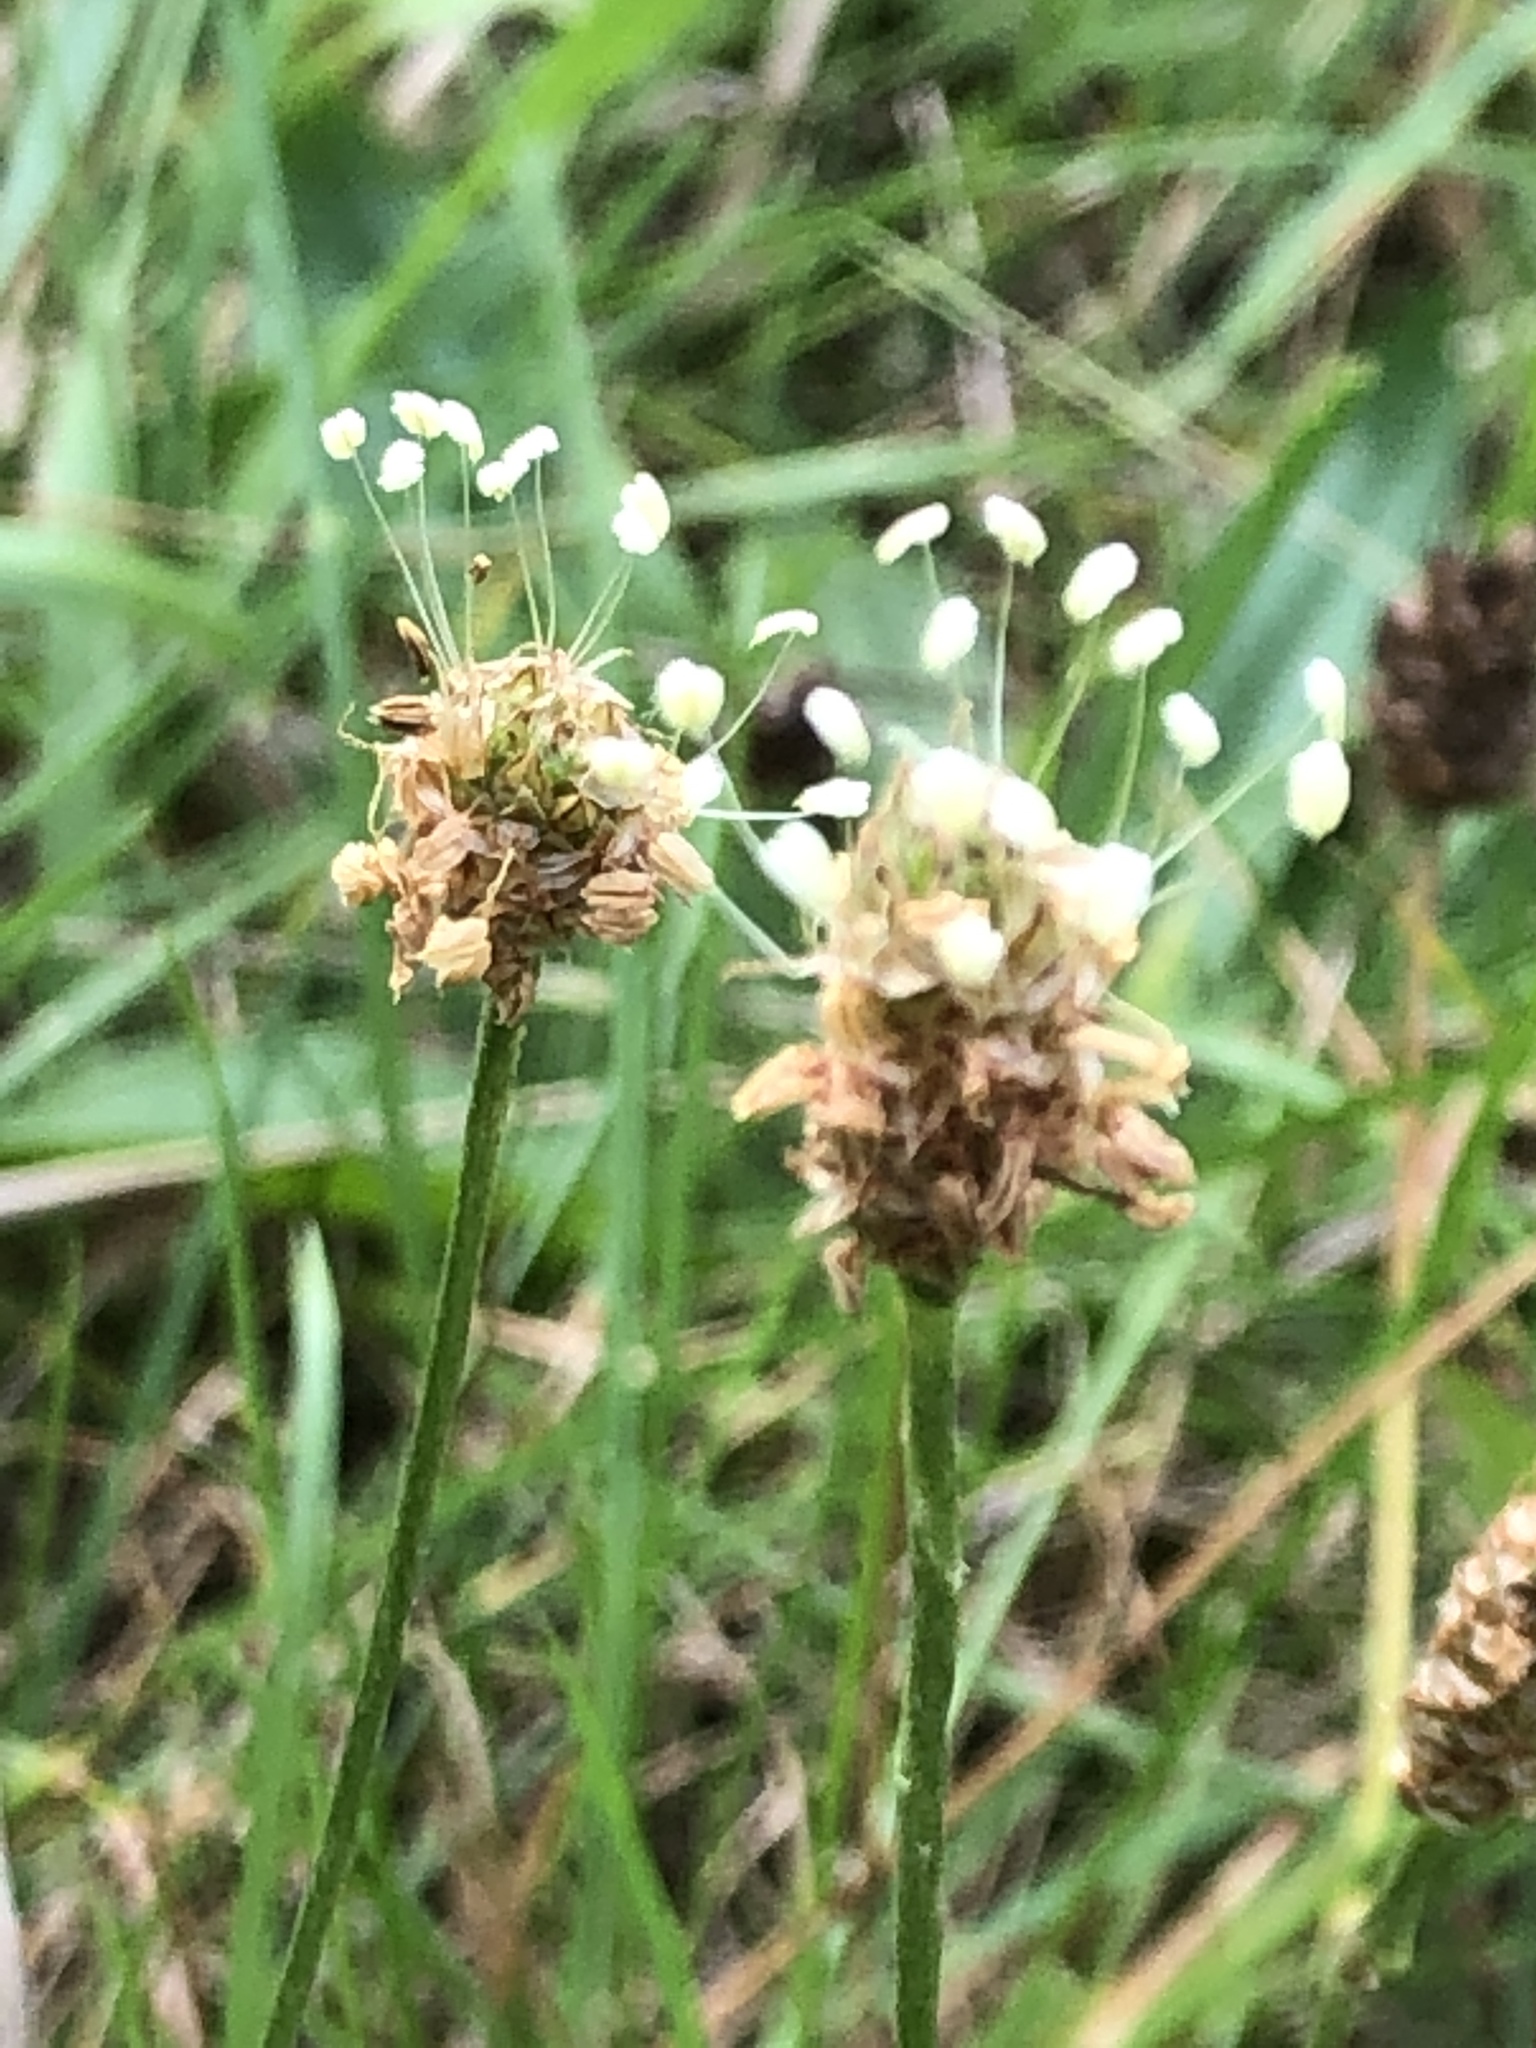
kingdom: Plantae
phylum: Tracheophyta
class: Magnoliopsida
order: Lamiales
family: Plantaginaceae
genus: Plantago
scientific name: Plantago lanceolata
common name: Ribwort plantain
